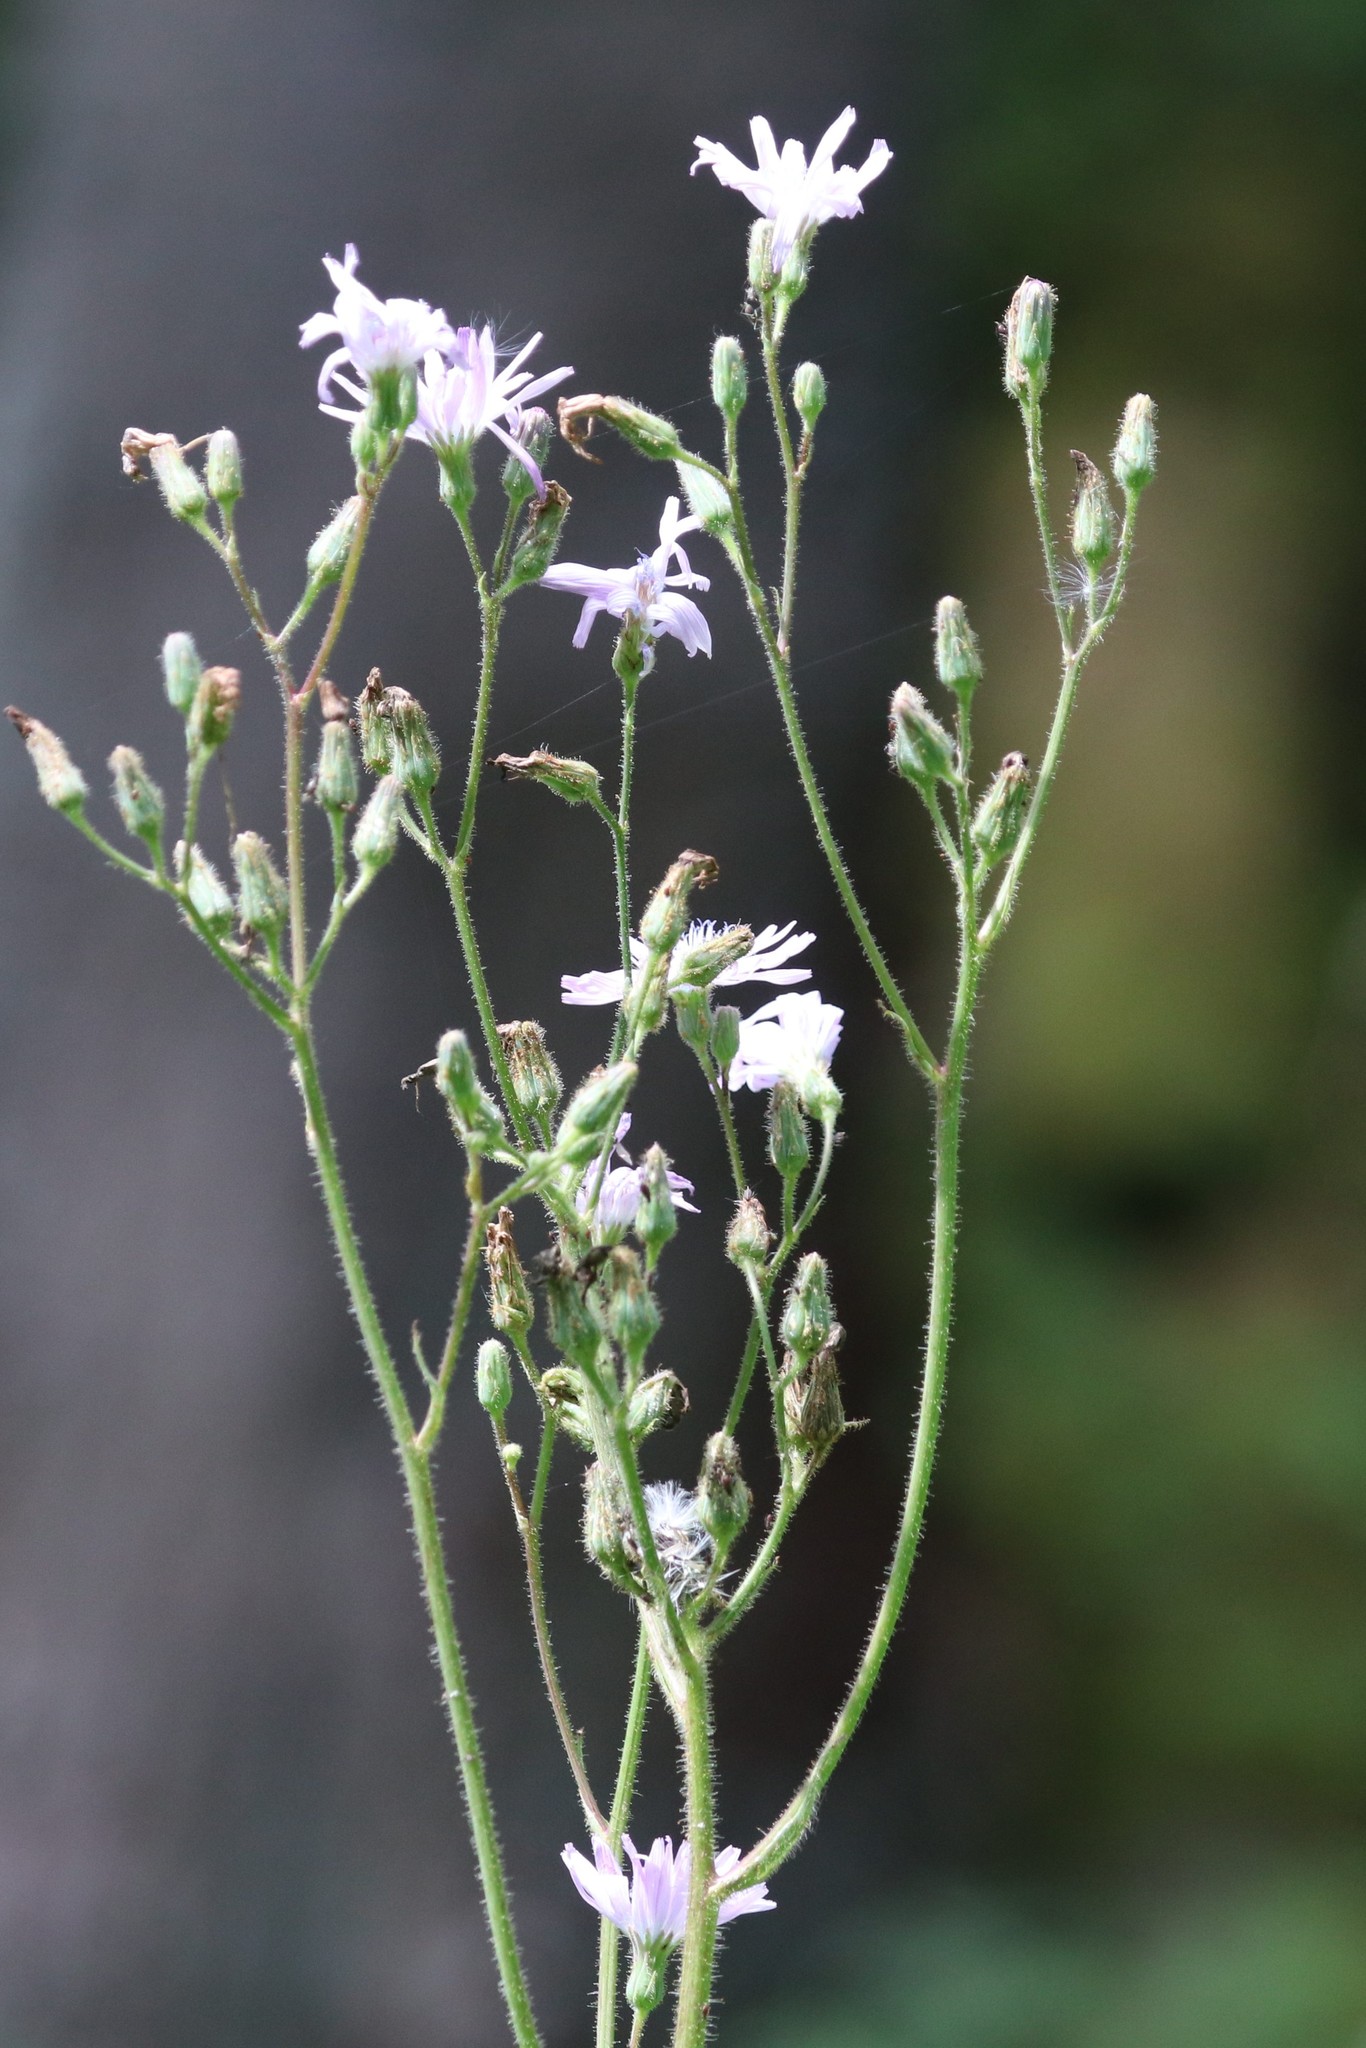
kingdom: Plantae
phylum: Tracheophyta
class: Magnoliopsida
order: Asterales
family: Asteraceae
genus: Lactuca
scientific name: Lactuca macrophylla
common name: Common blue-sow-thistle
